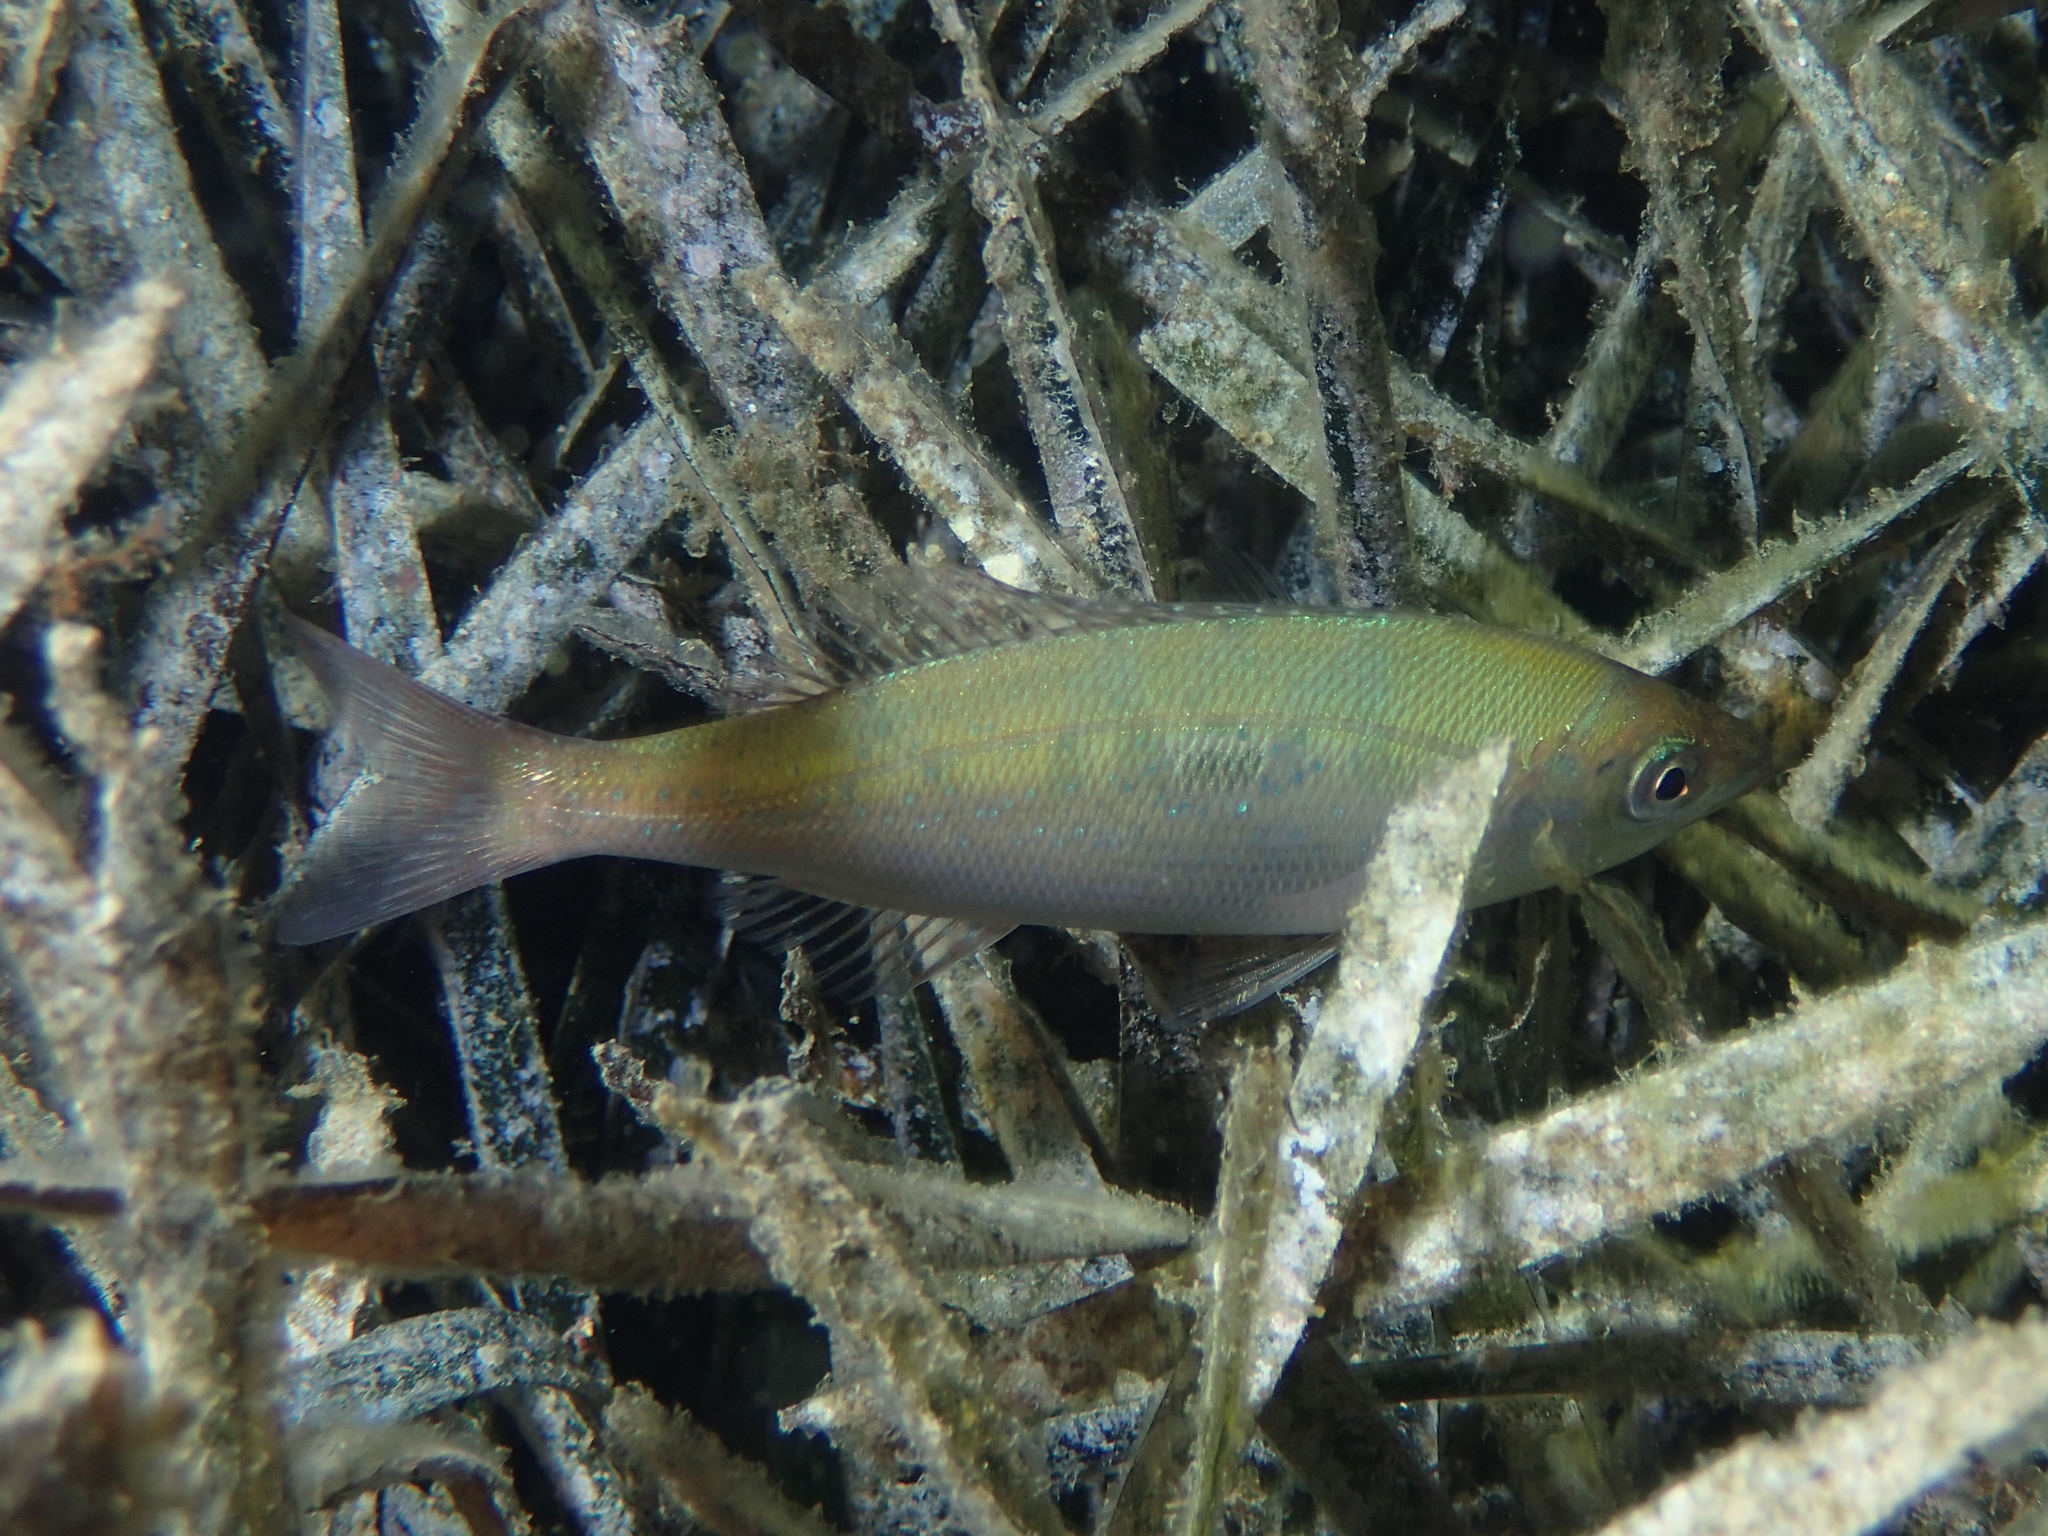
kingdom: Animalia
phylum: Chordata
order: Perciformes
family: Sparidae
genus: Spicara
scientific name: Spicara maena
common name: Blotched picarel
